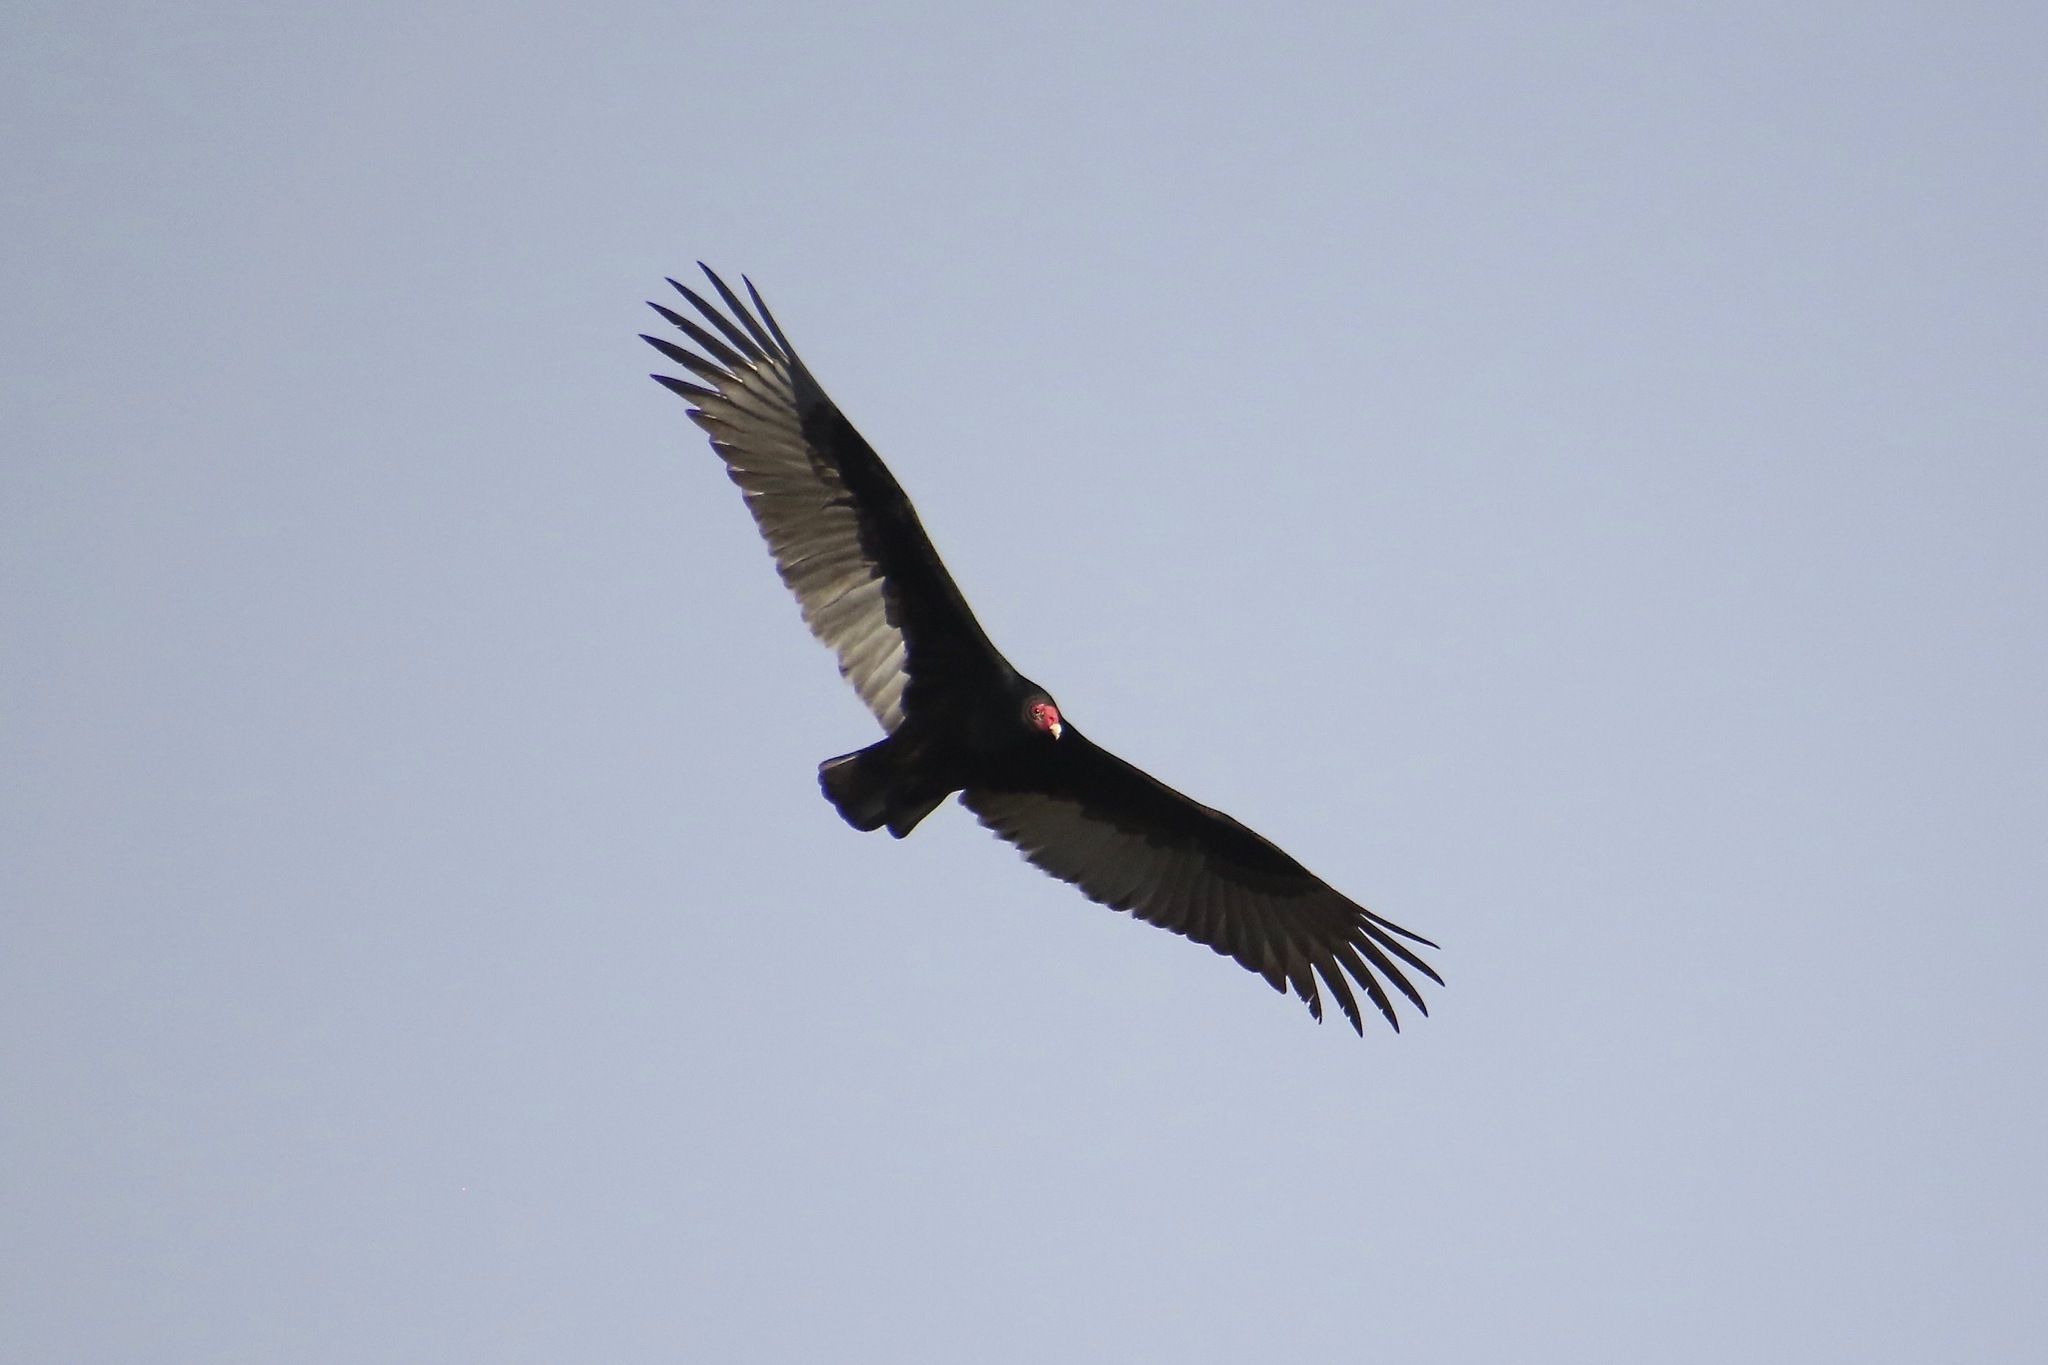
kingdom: Animalia
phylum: Chordata
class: Aves
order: Accipitriformes
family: Cathartidae
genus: Cathartes
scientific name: Cathartes aura
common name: Turkey vulture
